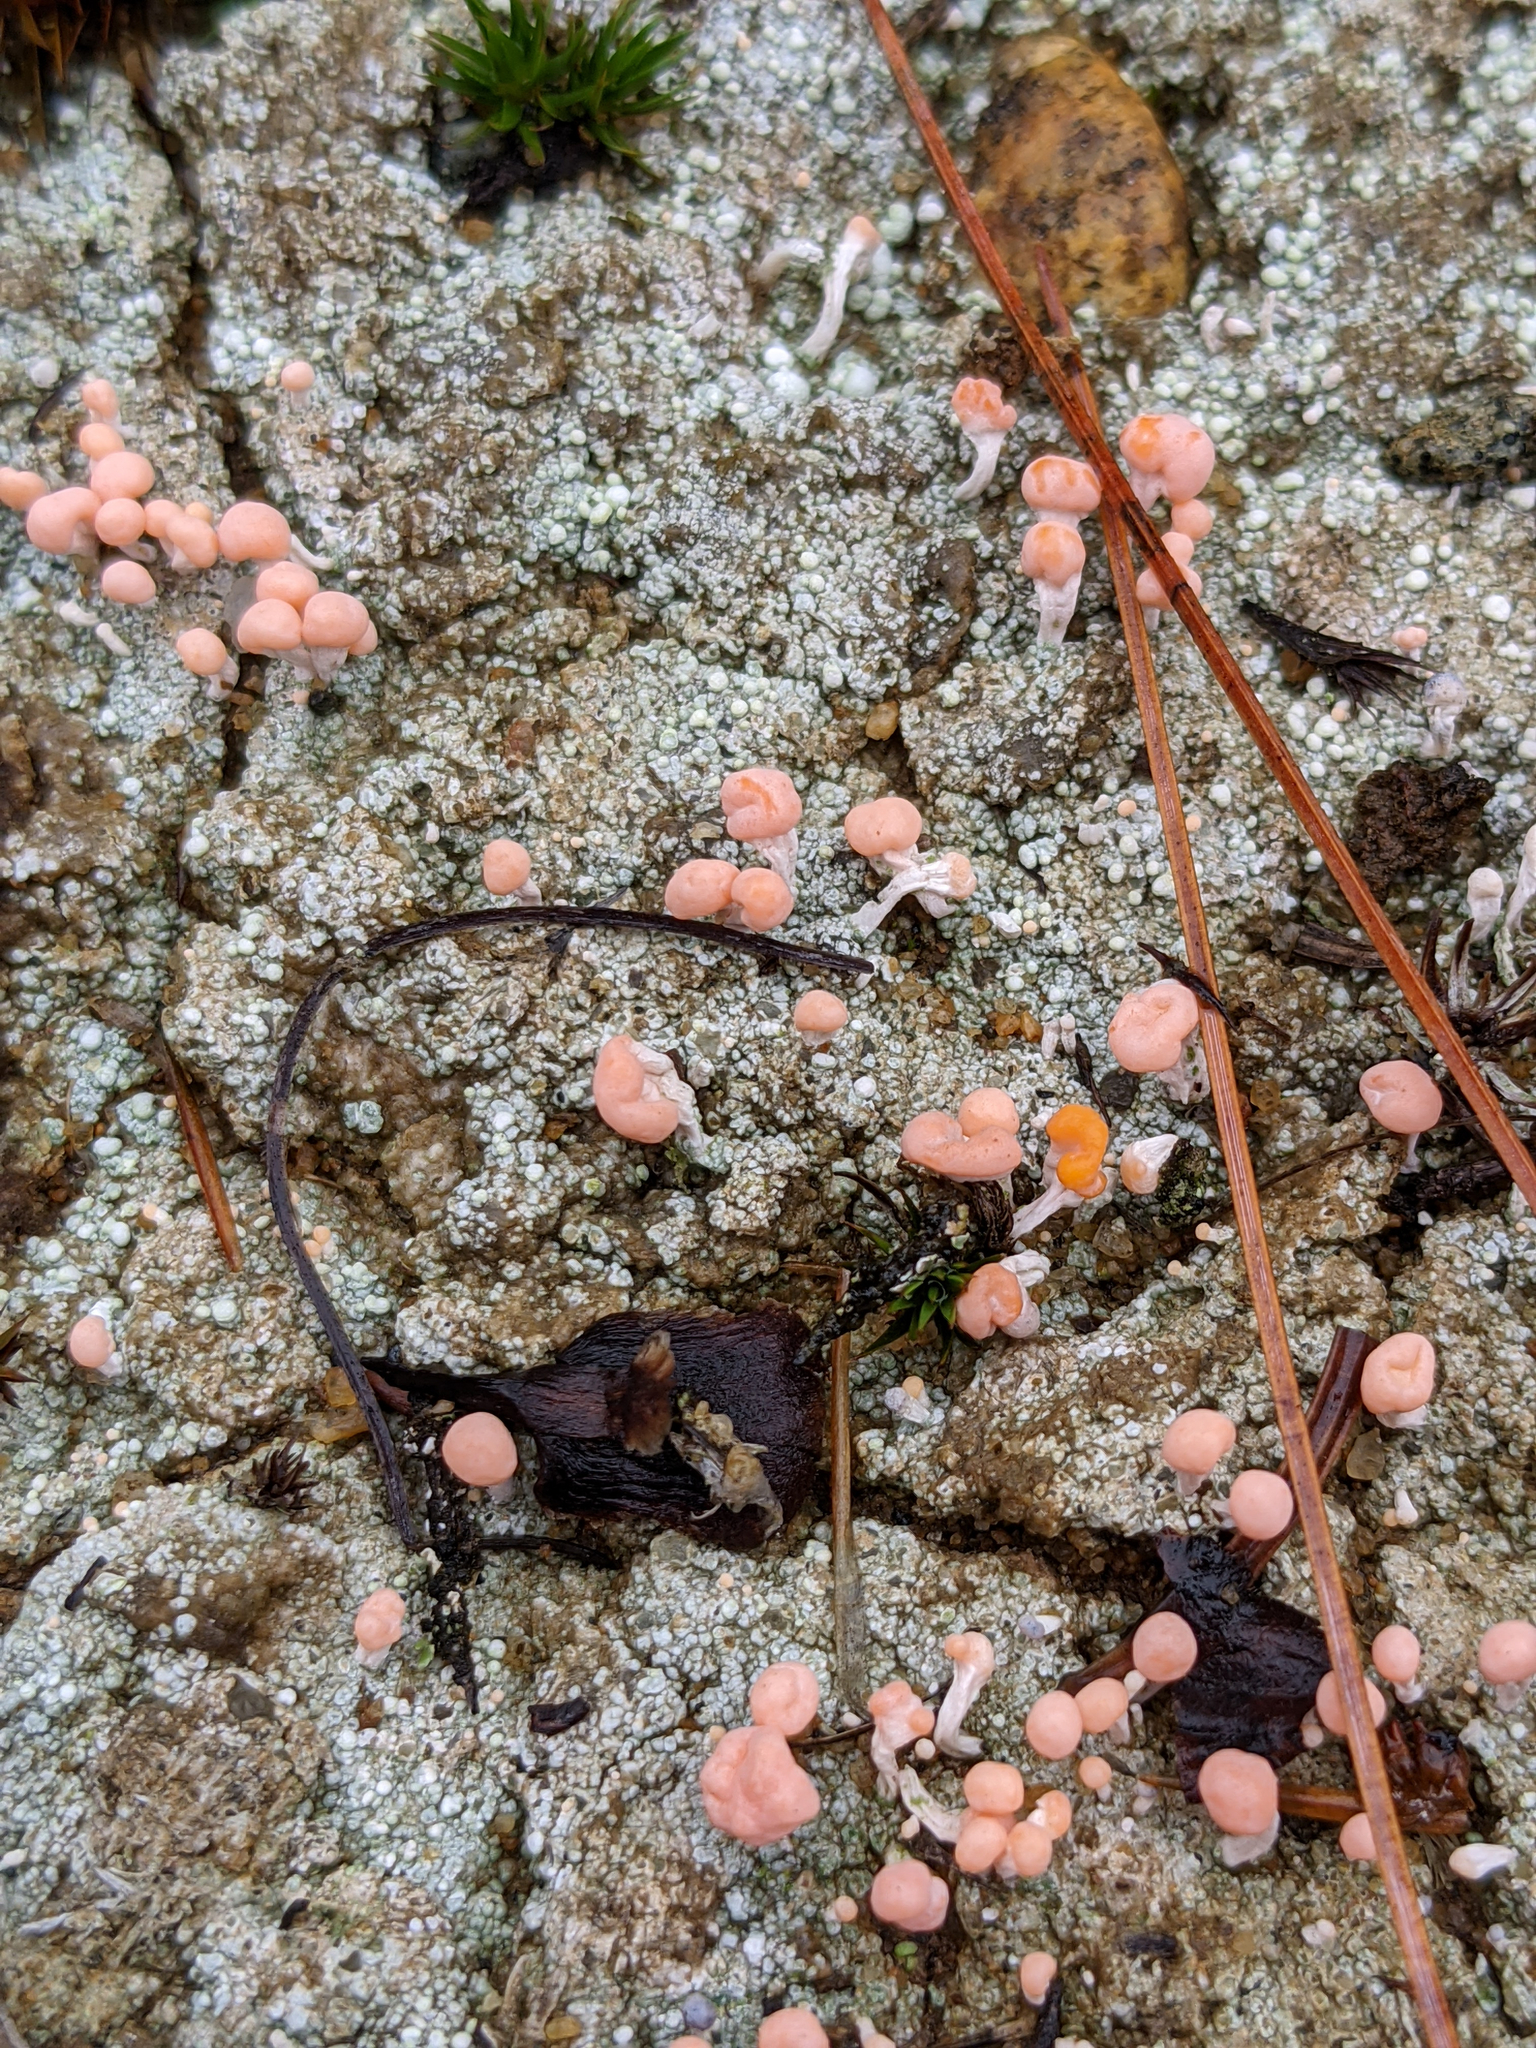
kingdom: Fungi
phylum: Ascomycota
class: Lecanoromycetes
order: Pertusariales
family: Icmadophilaceae
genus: Dibaeis
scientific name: Dibaeis baeomyces
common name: Pink earth lichen
